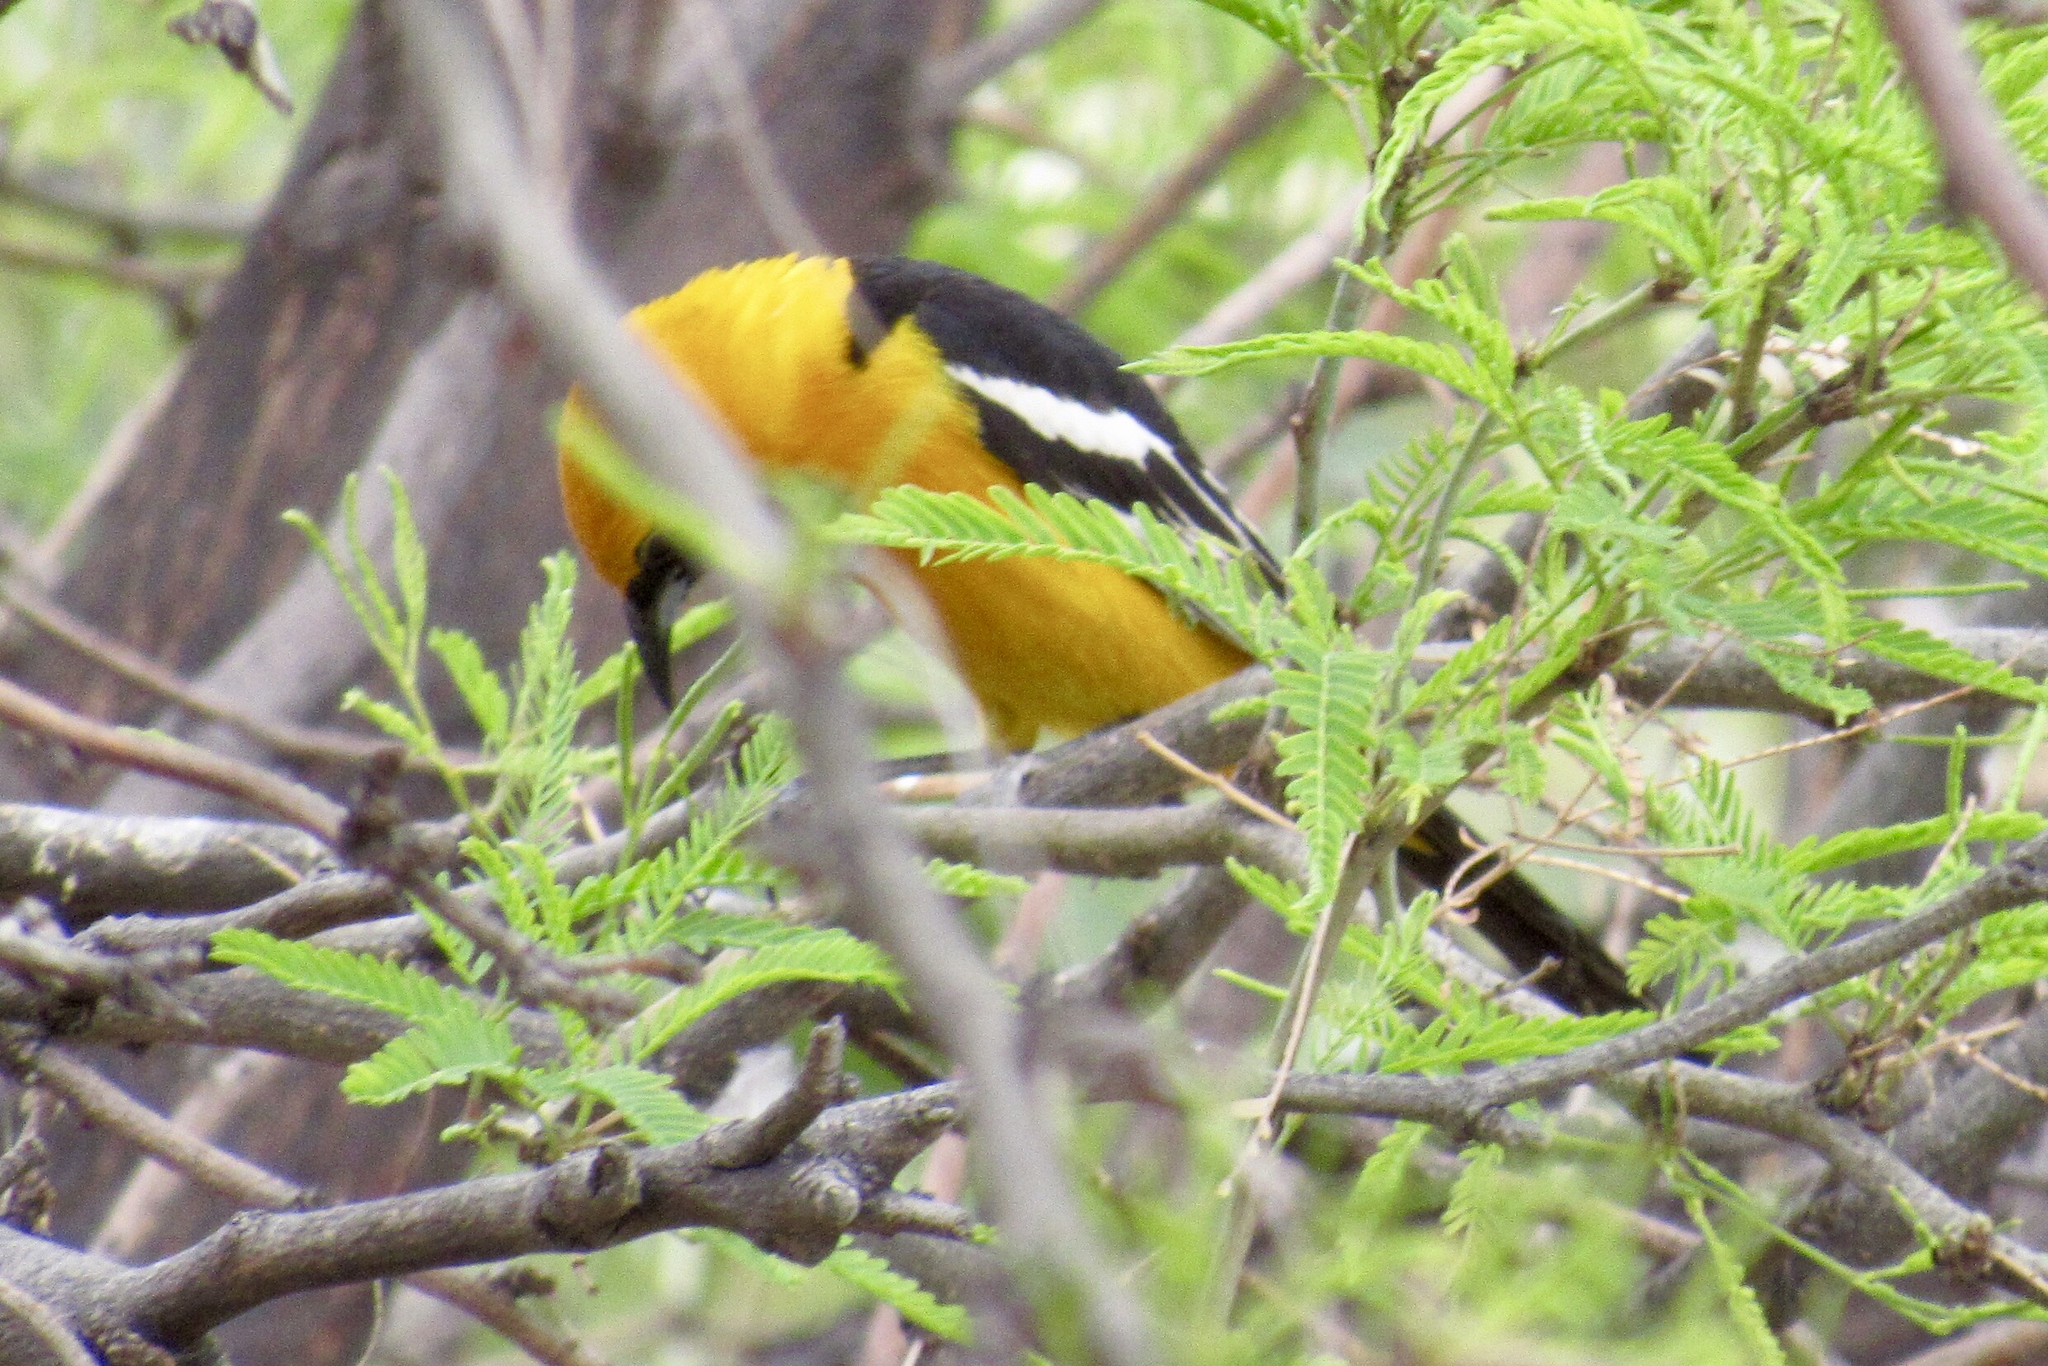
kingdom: Animalia
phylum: Chordata
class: Aves
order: Passeriformes
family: Icteridae
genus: Icterus
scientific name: Icterus cucullatus
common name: Hooded oriole
